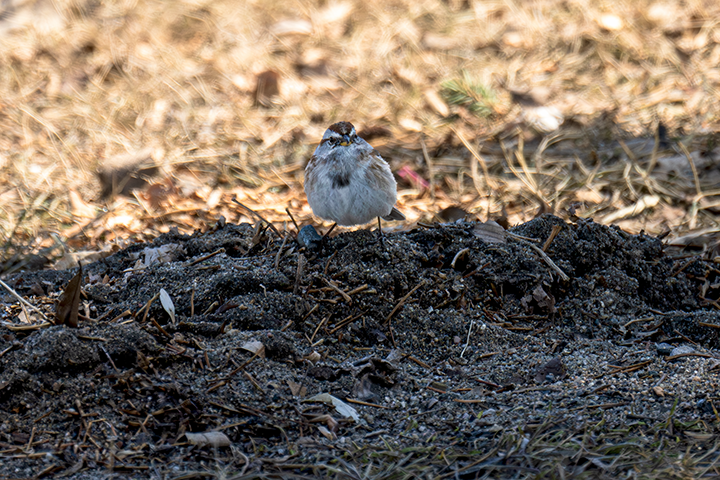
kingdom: Animalia
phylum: Chordata
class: Aves
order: Passeriformes
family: Passerellidae
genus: Spizelloides
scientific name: Spizelloides arborea
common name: American tree sparrow
